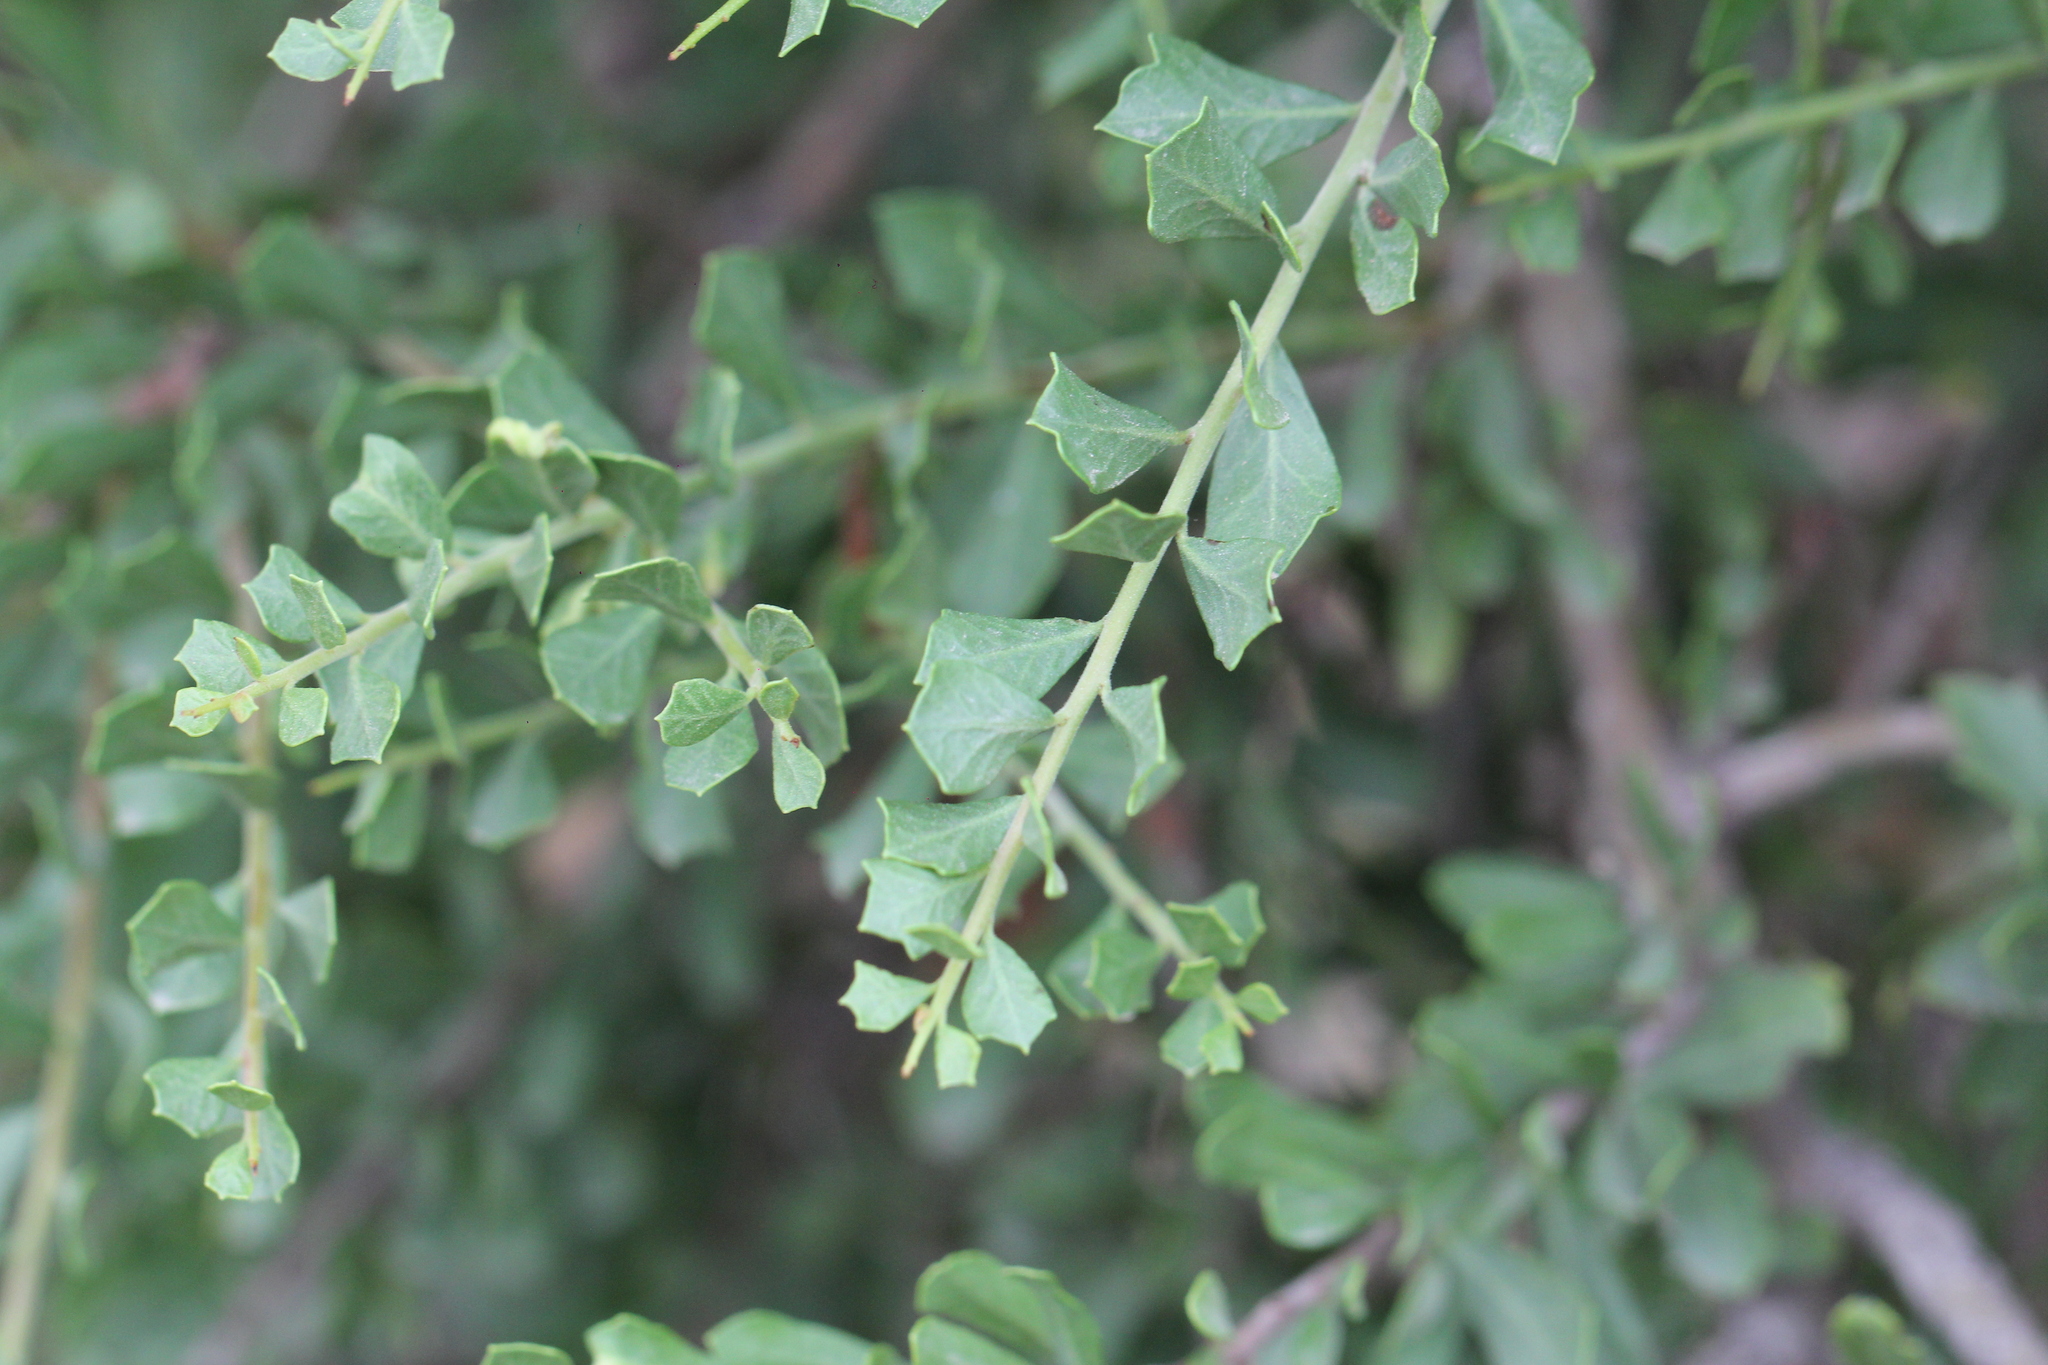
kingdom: Plantae
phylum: Tracheophyta
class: Magnoliopsida
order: Sapindales
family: Anacardiaceae
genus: Schinus
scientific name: Schinus fasciculata
